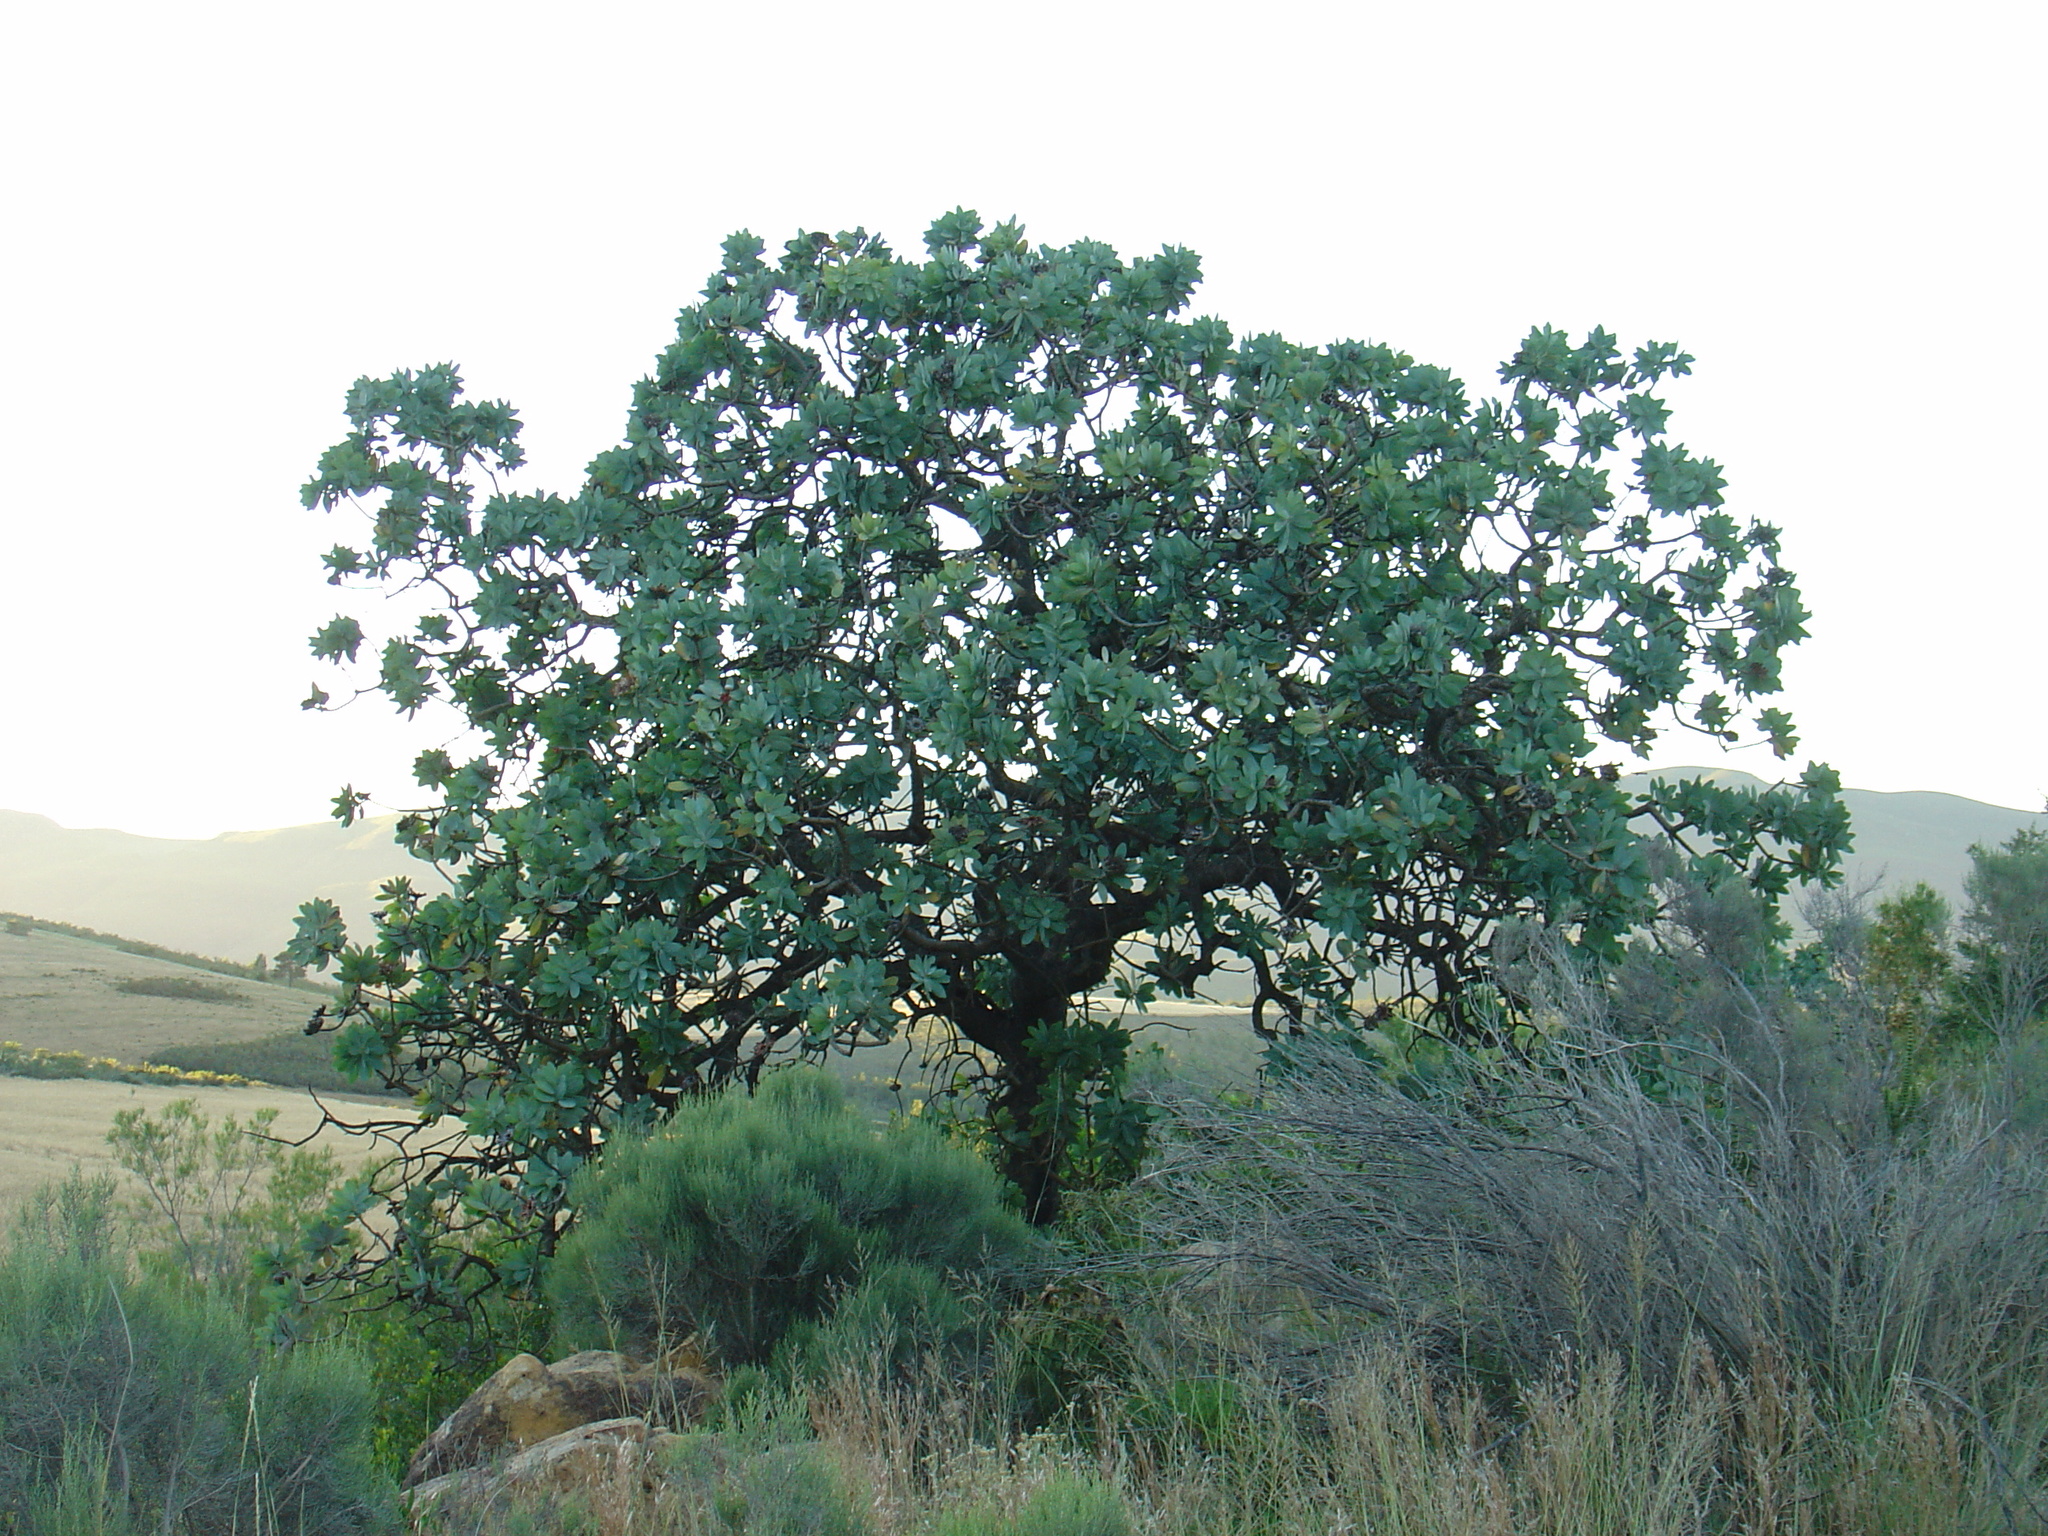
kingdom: Plantae
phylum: Tracheophyta
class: Magnoliopsida
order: Proteales
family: Proteaceae
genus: Protea
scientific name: Protea nitida
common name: Tree protea
